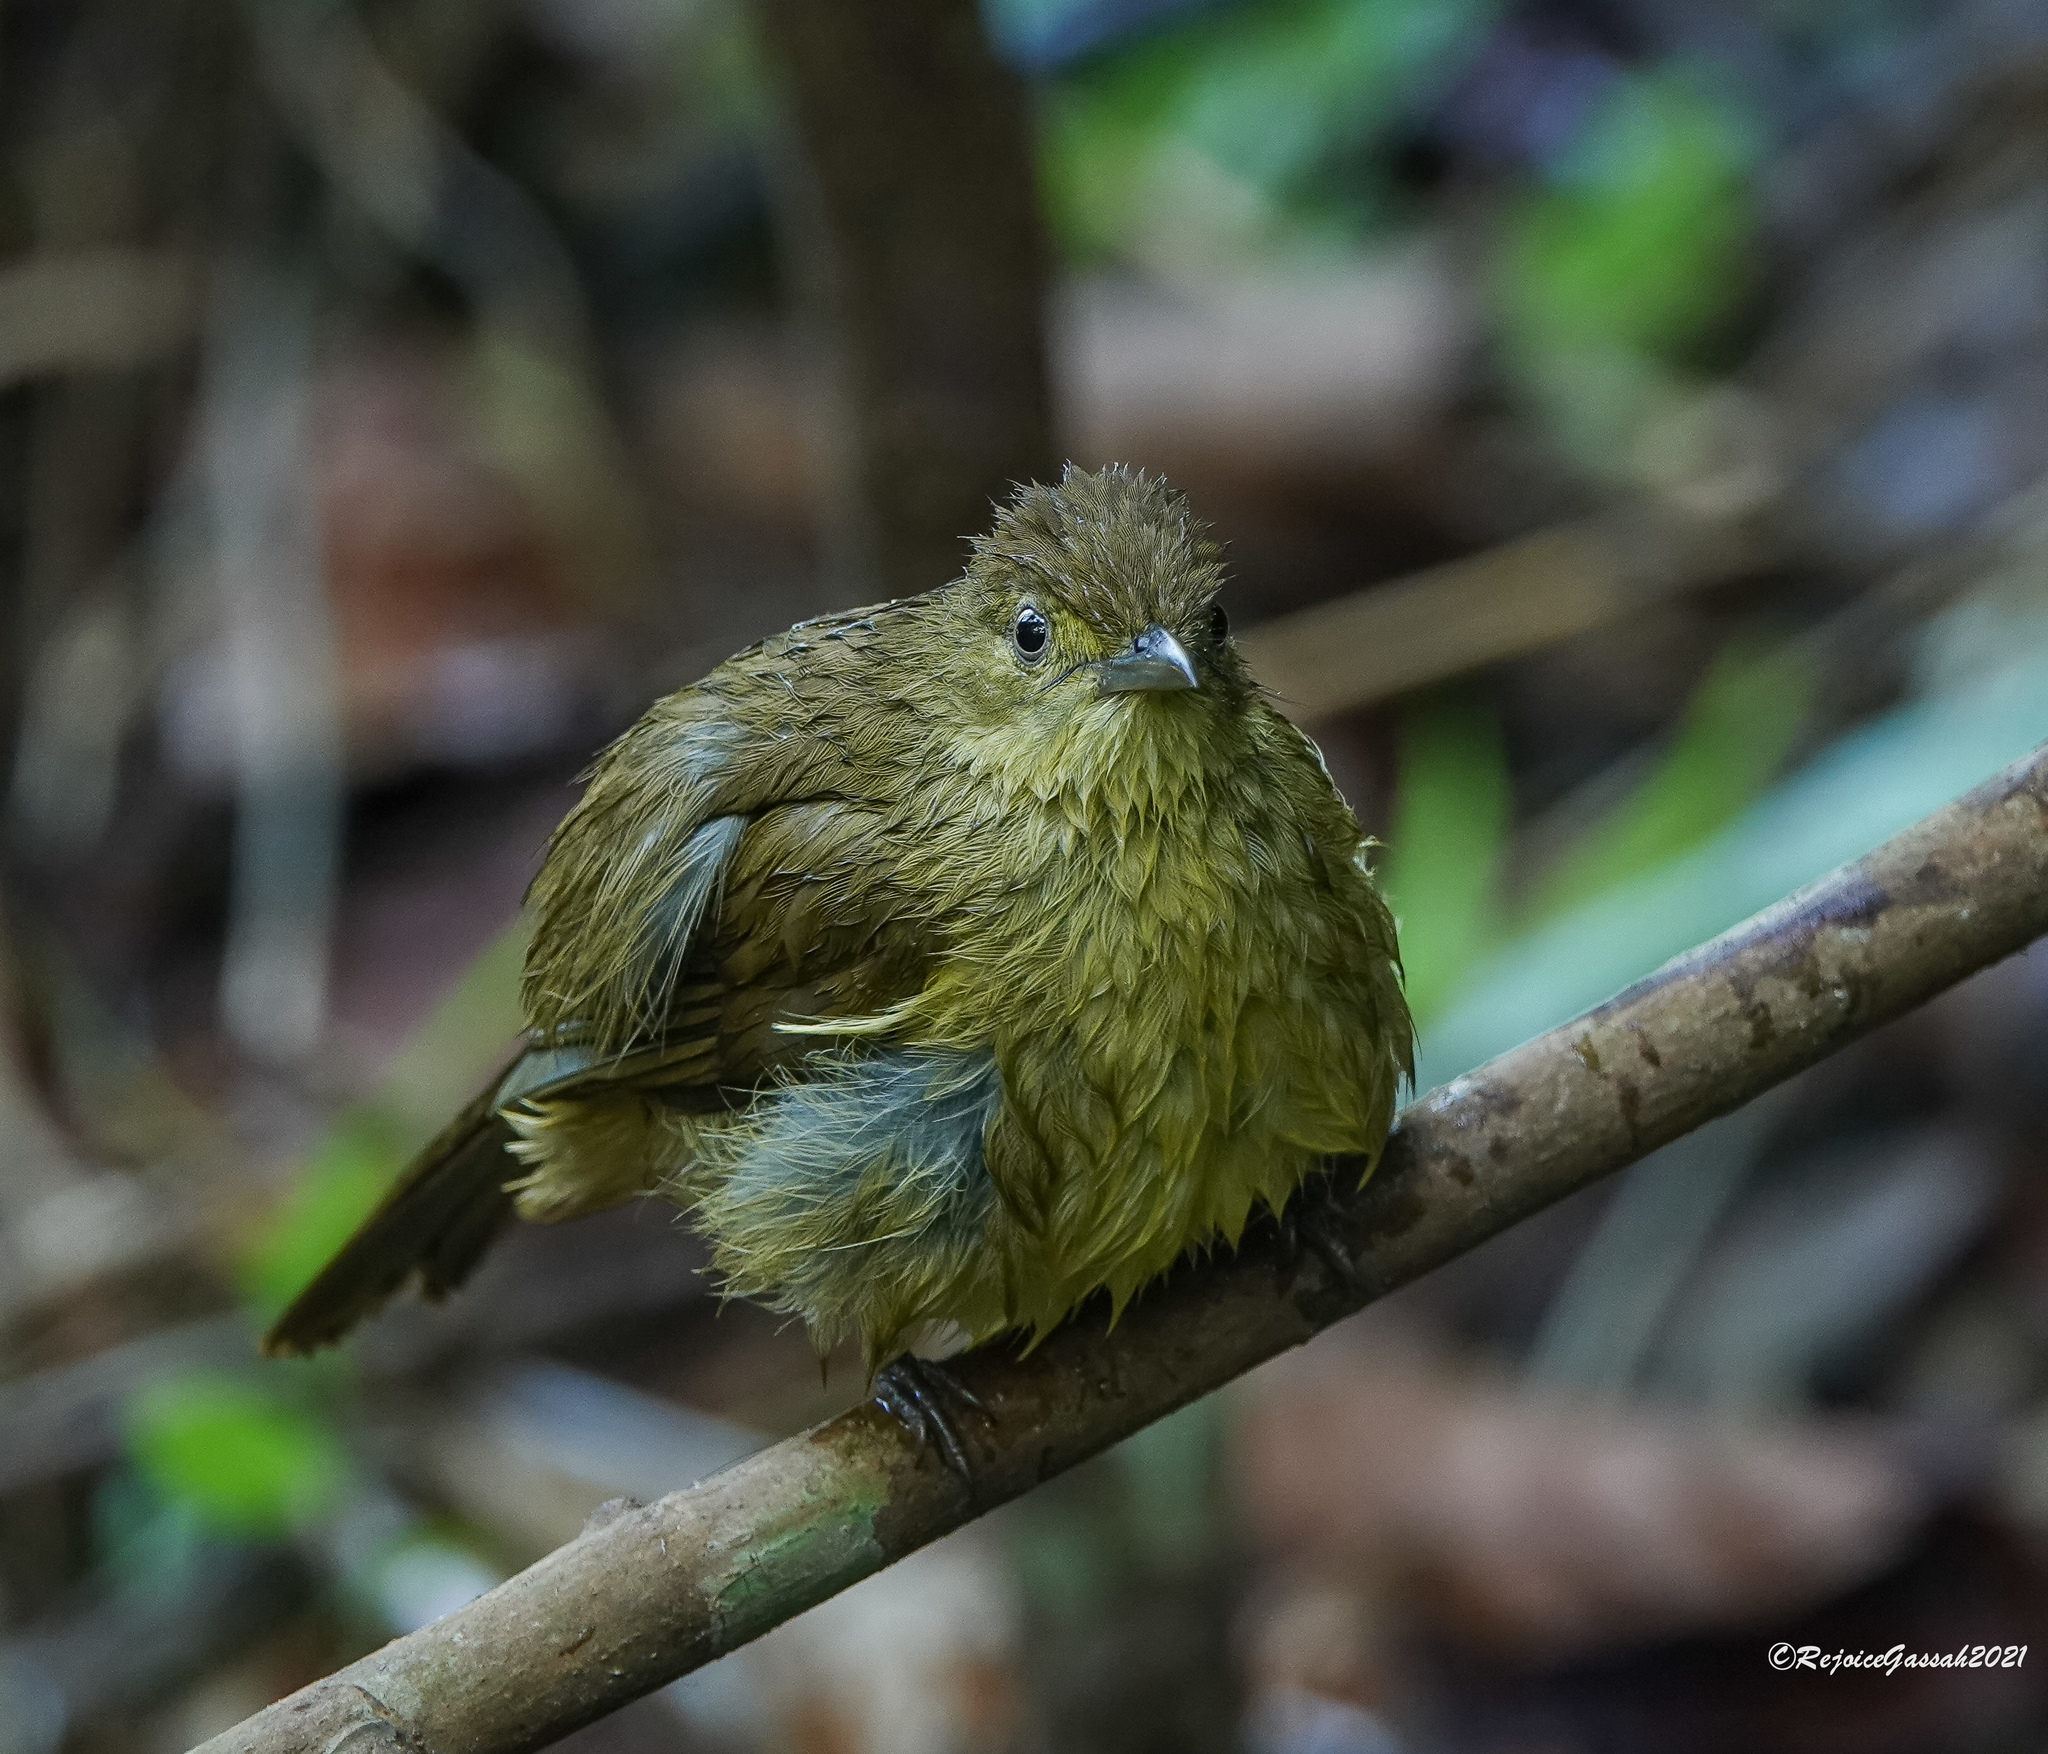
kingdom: Animalia
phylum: Chordata
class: Aves
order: Passeriformes
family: Pycnonotidae
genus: Iole
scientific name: Iole virescens
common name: Olive bulbul
